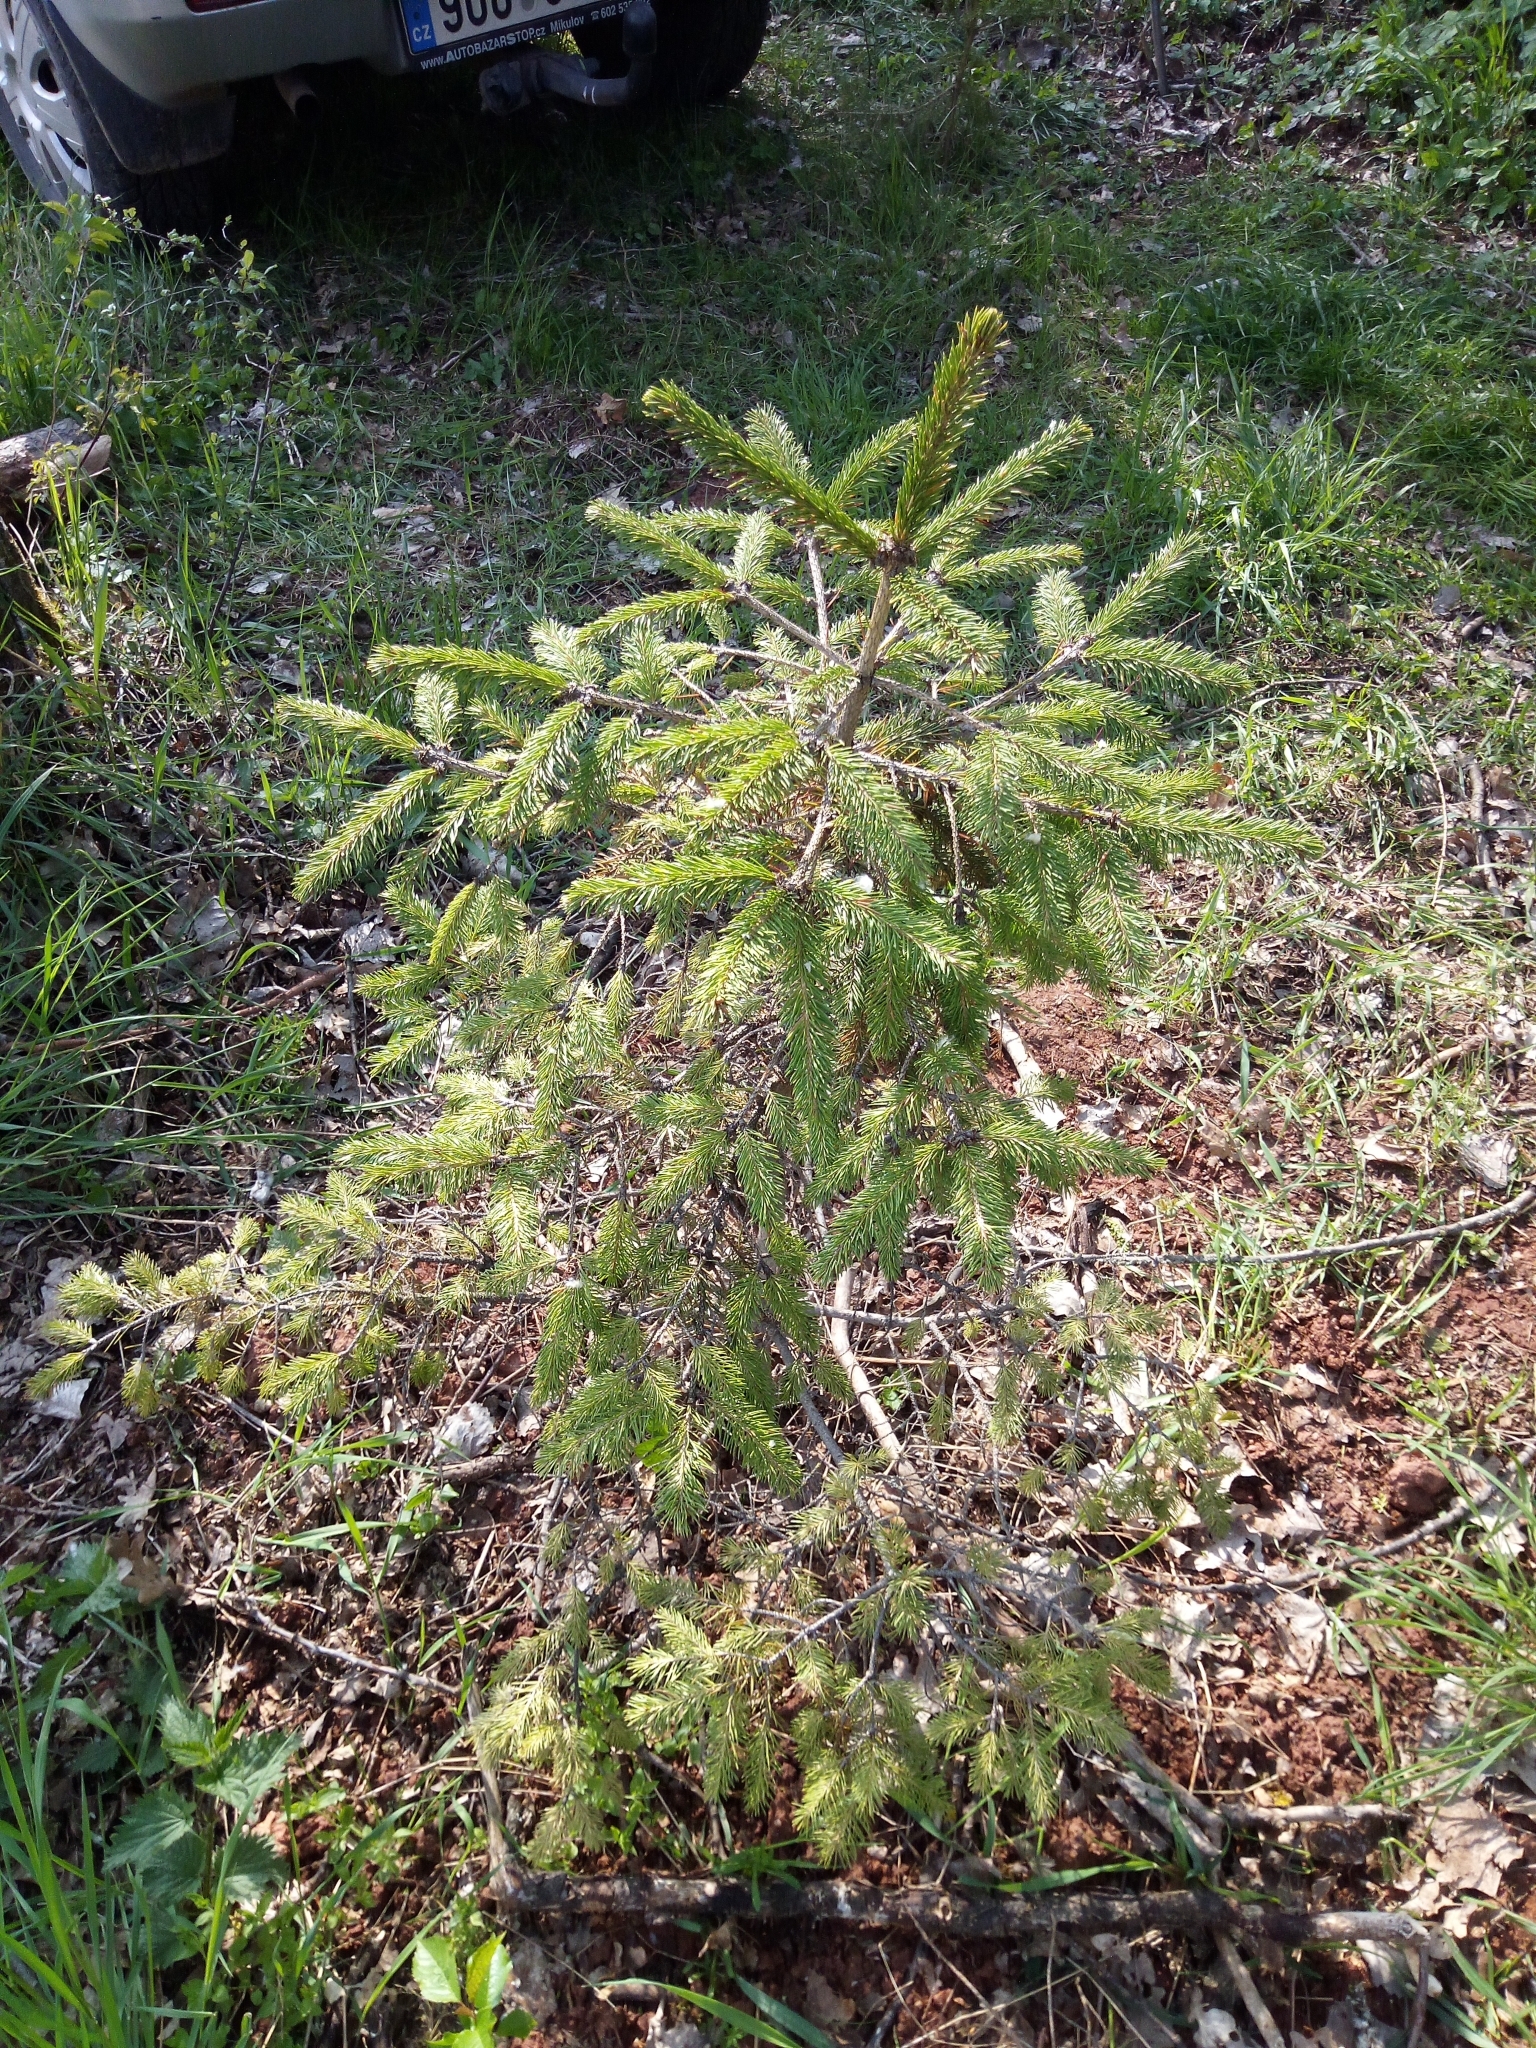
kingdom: Plantae
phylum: Tracheophyta
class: Pinopsida
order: Pinales
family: Pinaceae
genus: Picea
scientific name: Picea abies
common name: Norway spruce
